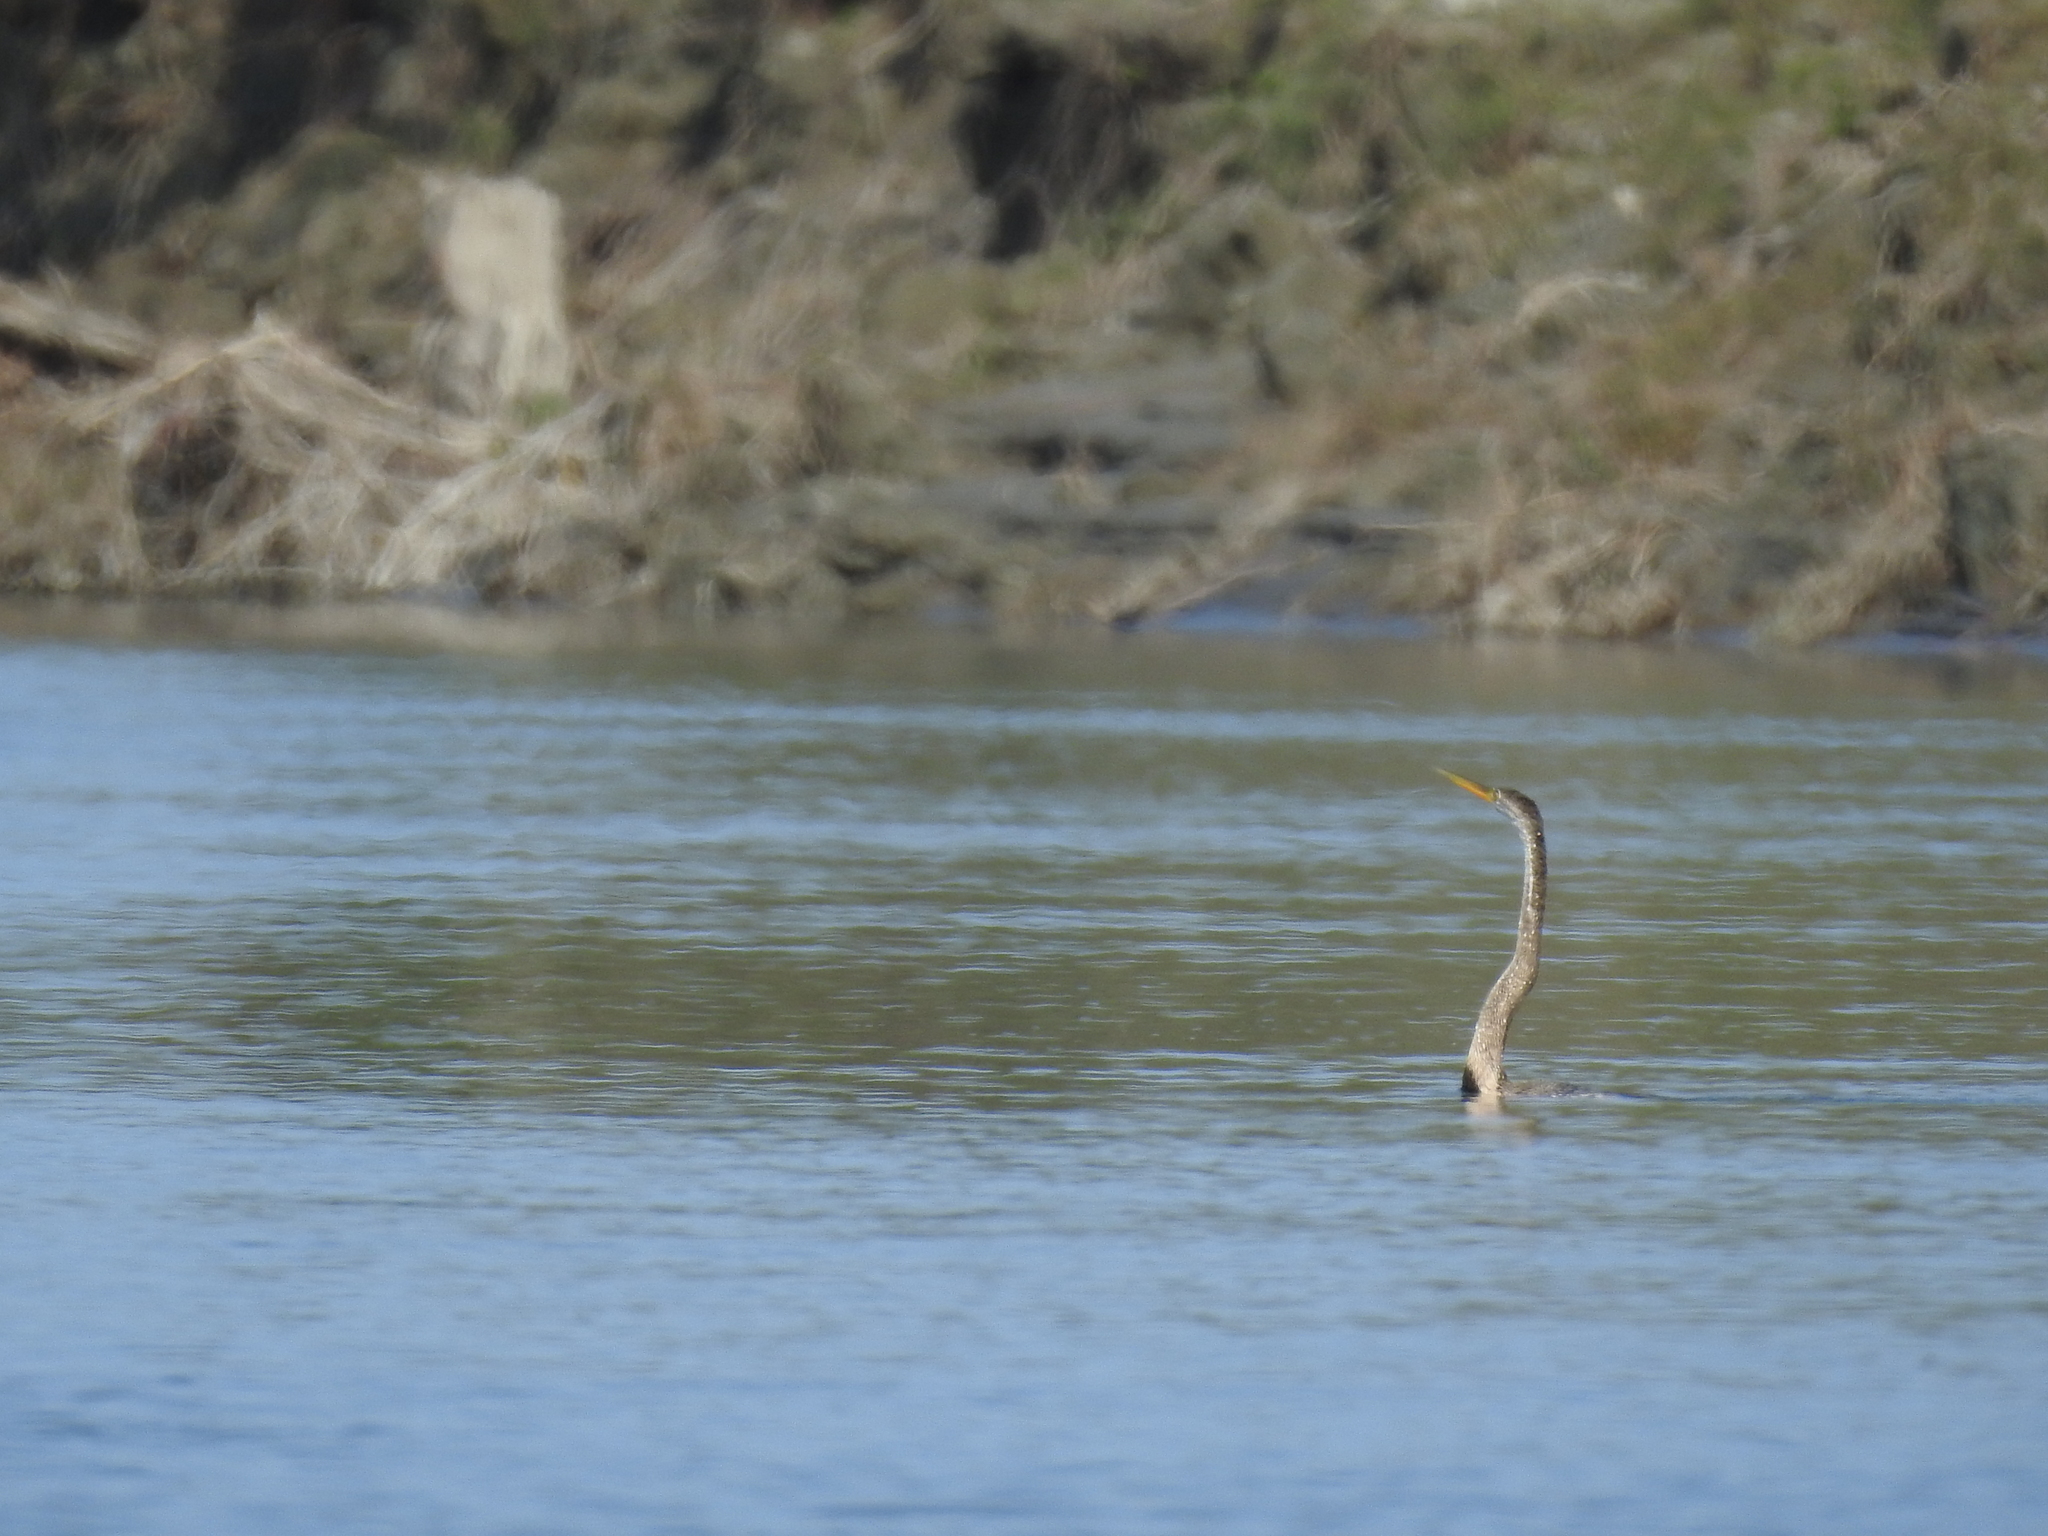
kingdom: Animalia
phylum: Chordata
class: Aves
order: Suliformes
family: Anhingidae
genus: Anhinga
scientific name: Anhinga melanogaster
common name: Oriental darter
